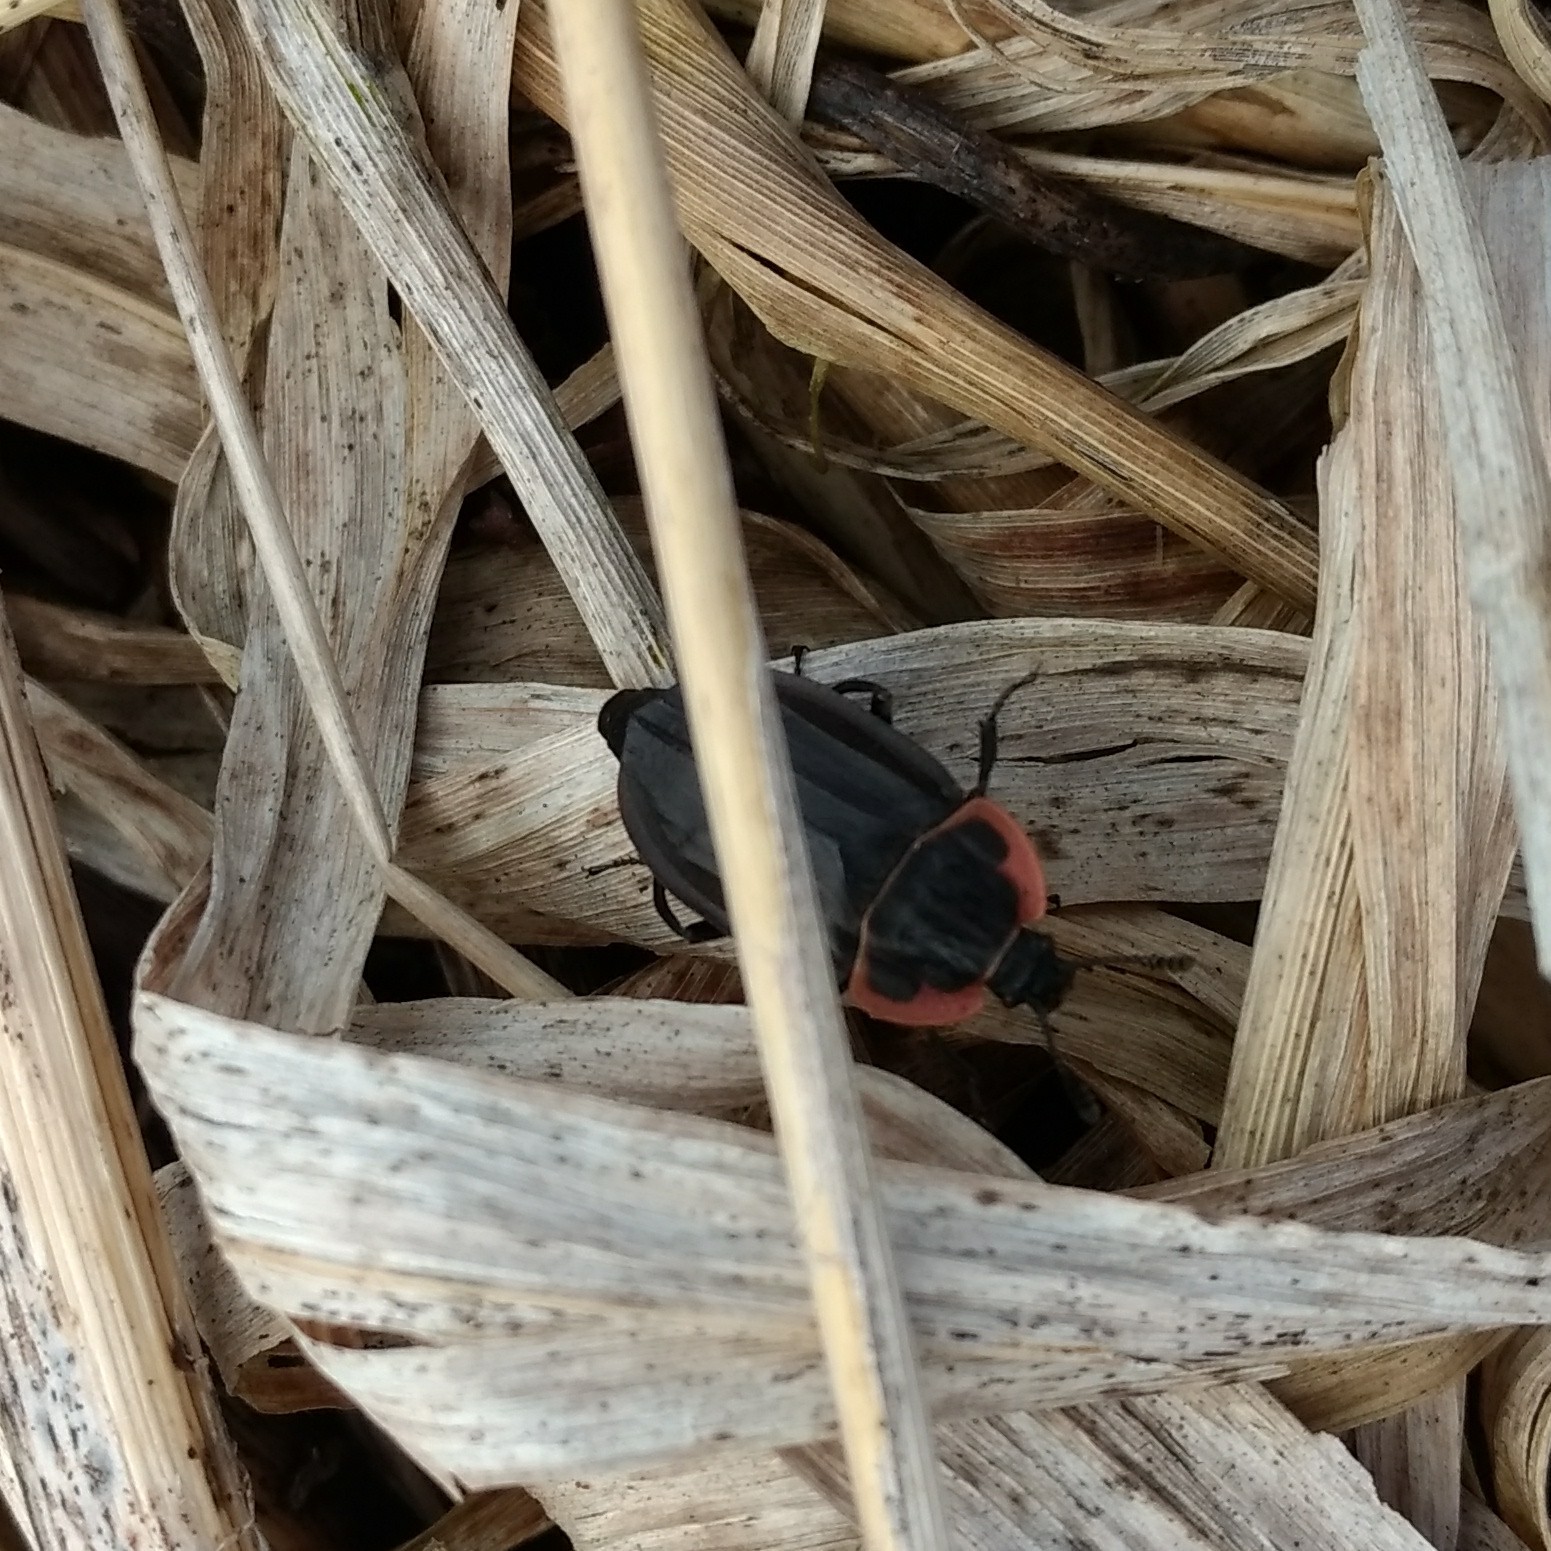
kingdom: Animalia
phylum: Arthropoda
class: Insecta
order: Coleoptera
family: Staphylinidae
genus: Oiceoptoma
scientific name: Oiceoptoma noveboracense
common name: Margined carrion beetle
